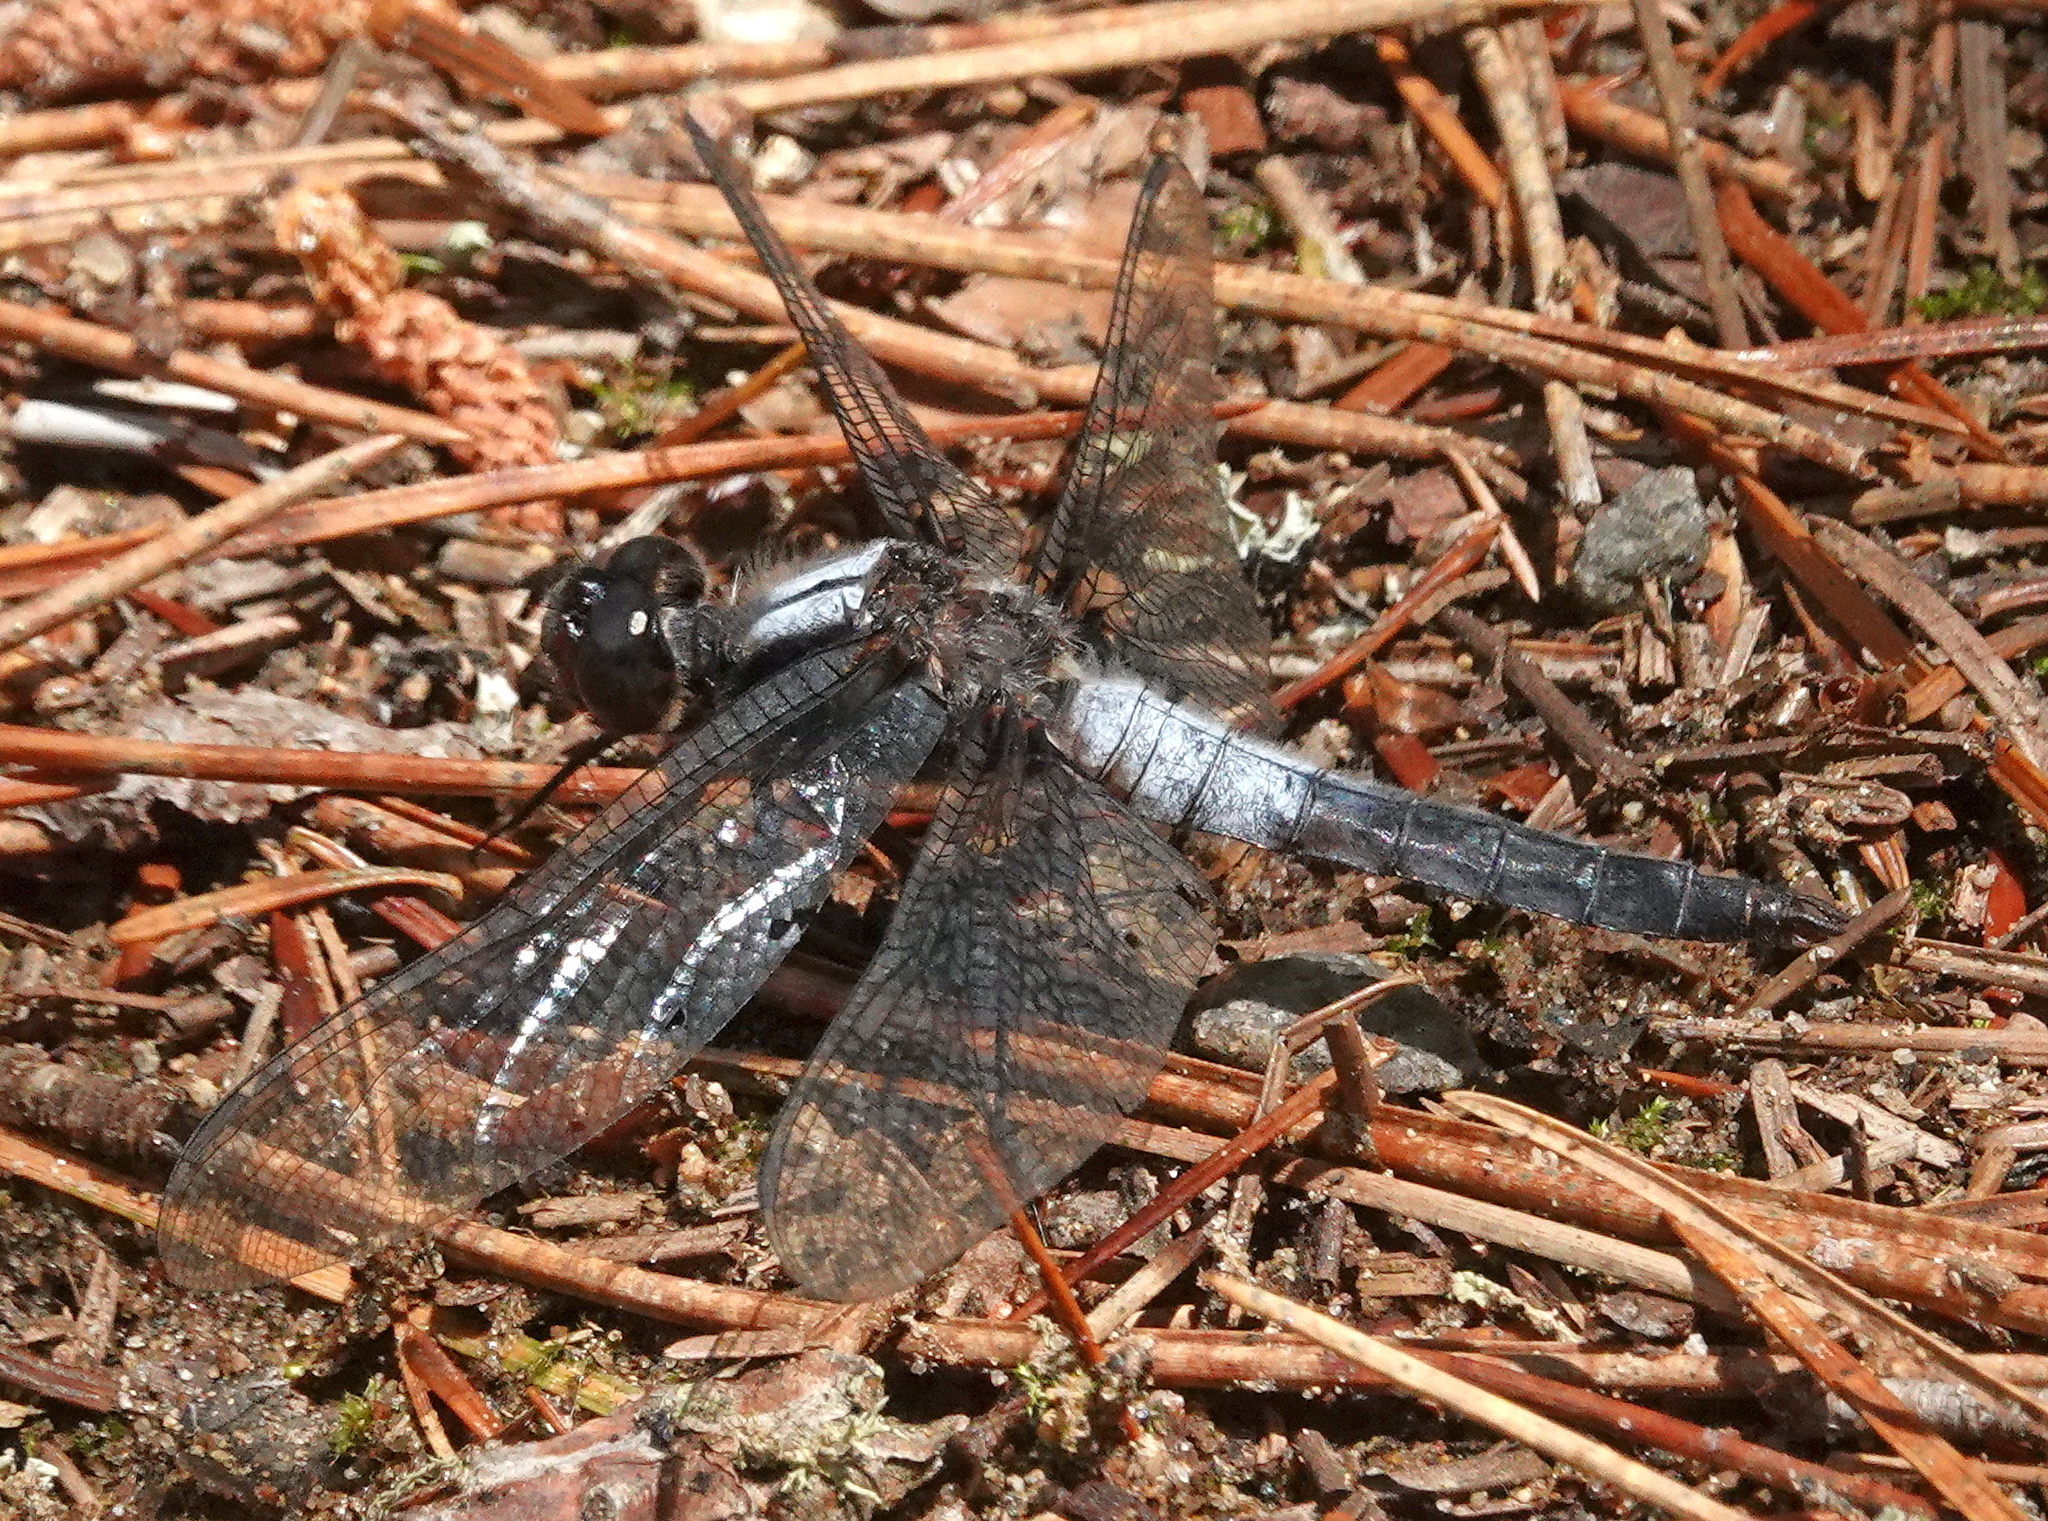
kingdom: Animalia
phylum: Arthropoda
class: Insecta
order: Odonata
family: Libellulidae
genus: Ladona
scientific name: Ladona julia
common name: Chalk-fronted corporal
